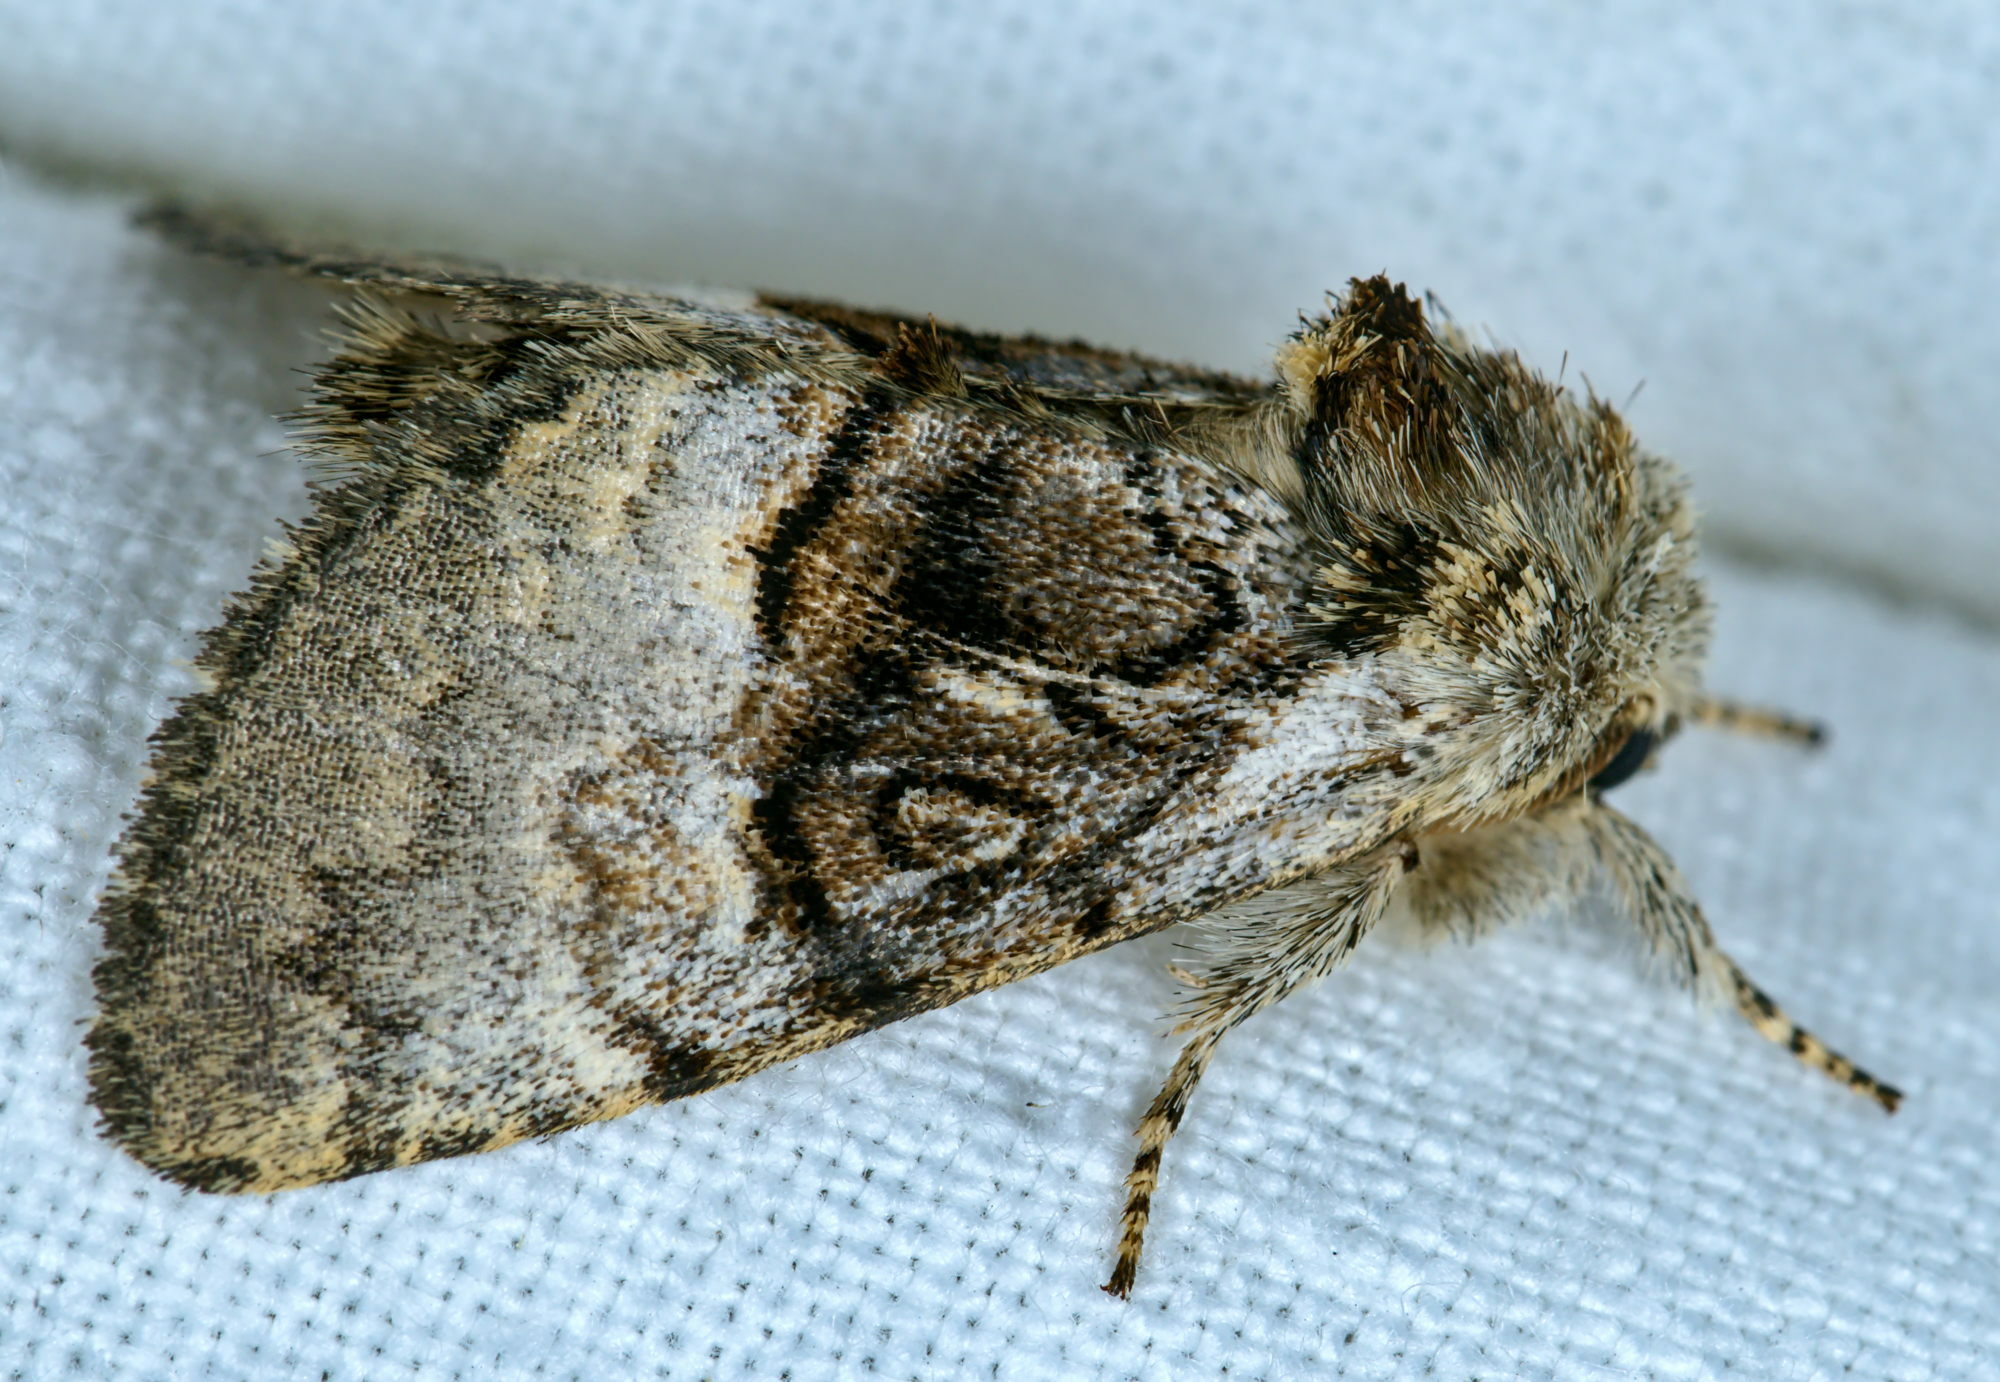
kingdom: Animalia
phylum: Arthropoda
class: Insecta
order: Lepidoptera
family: Noctuidae
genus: Colocasia
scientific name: Colocasia coryli
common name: Nut-tree tussock
